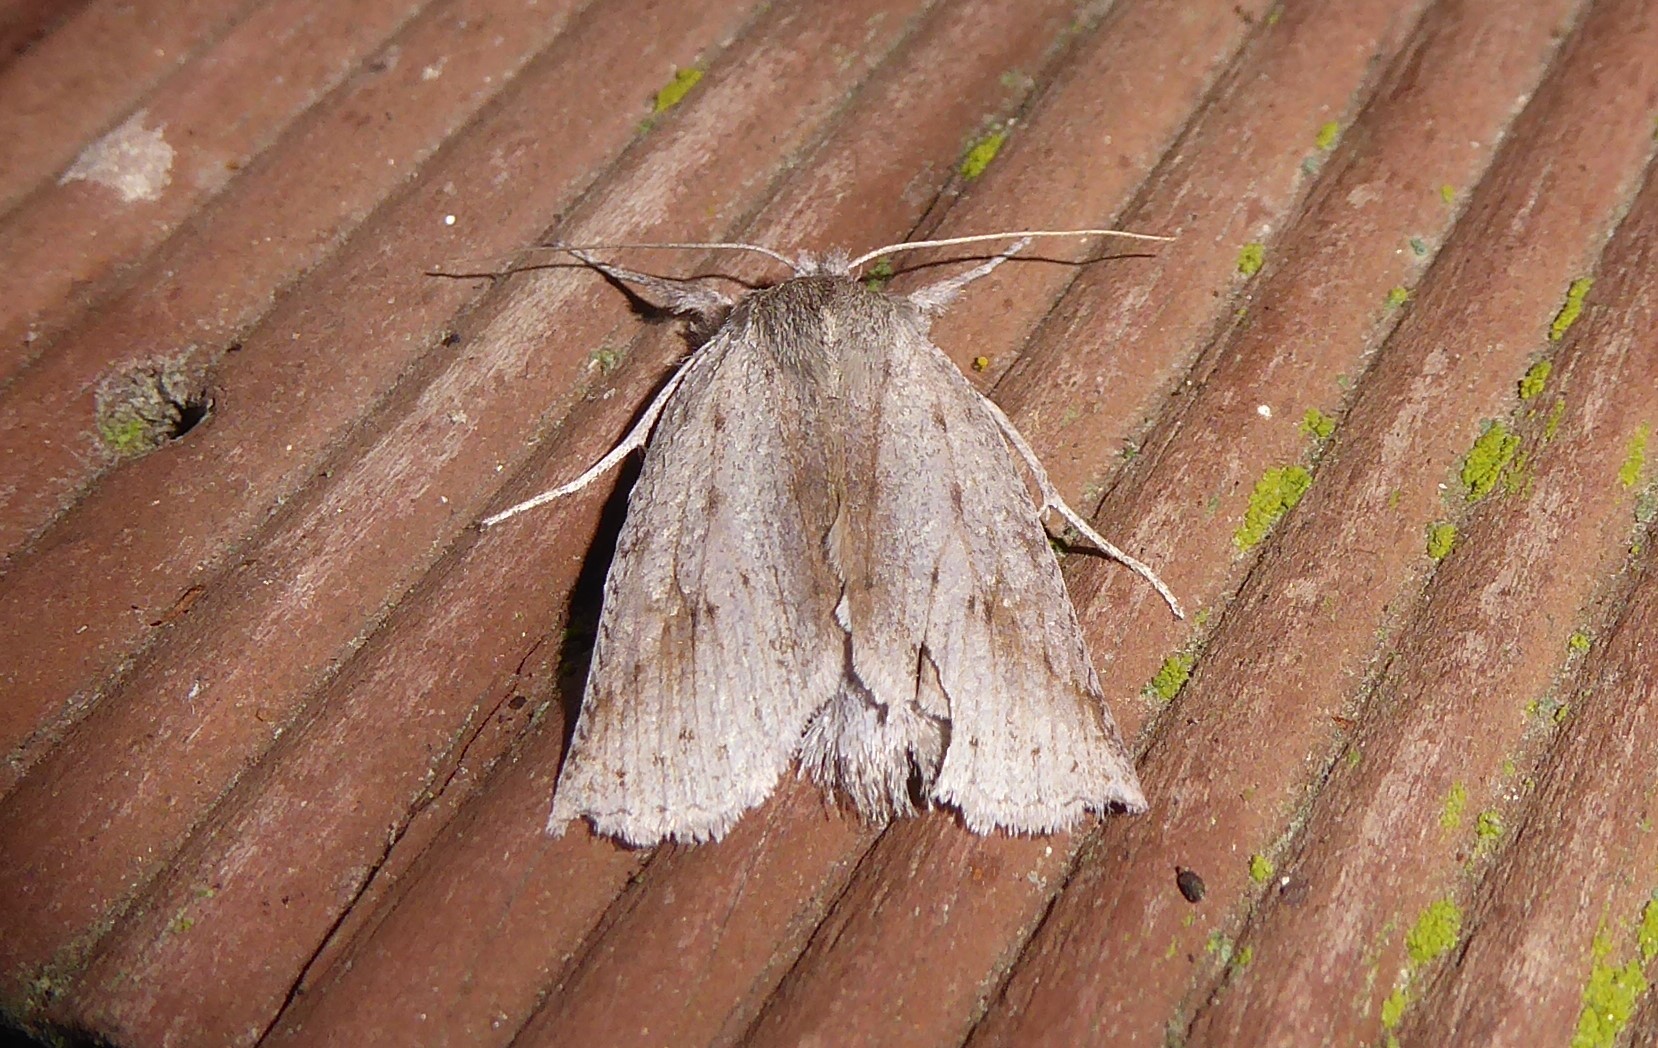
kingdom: Animalia
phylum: Arthropoda
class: Insecta
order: Lepidoptera
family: Geometridae
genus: Declana
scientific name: Declana leptomera
